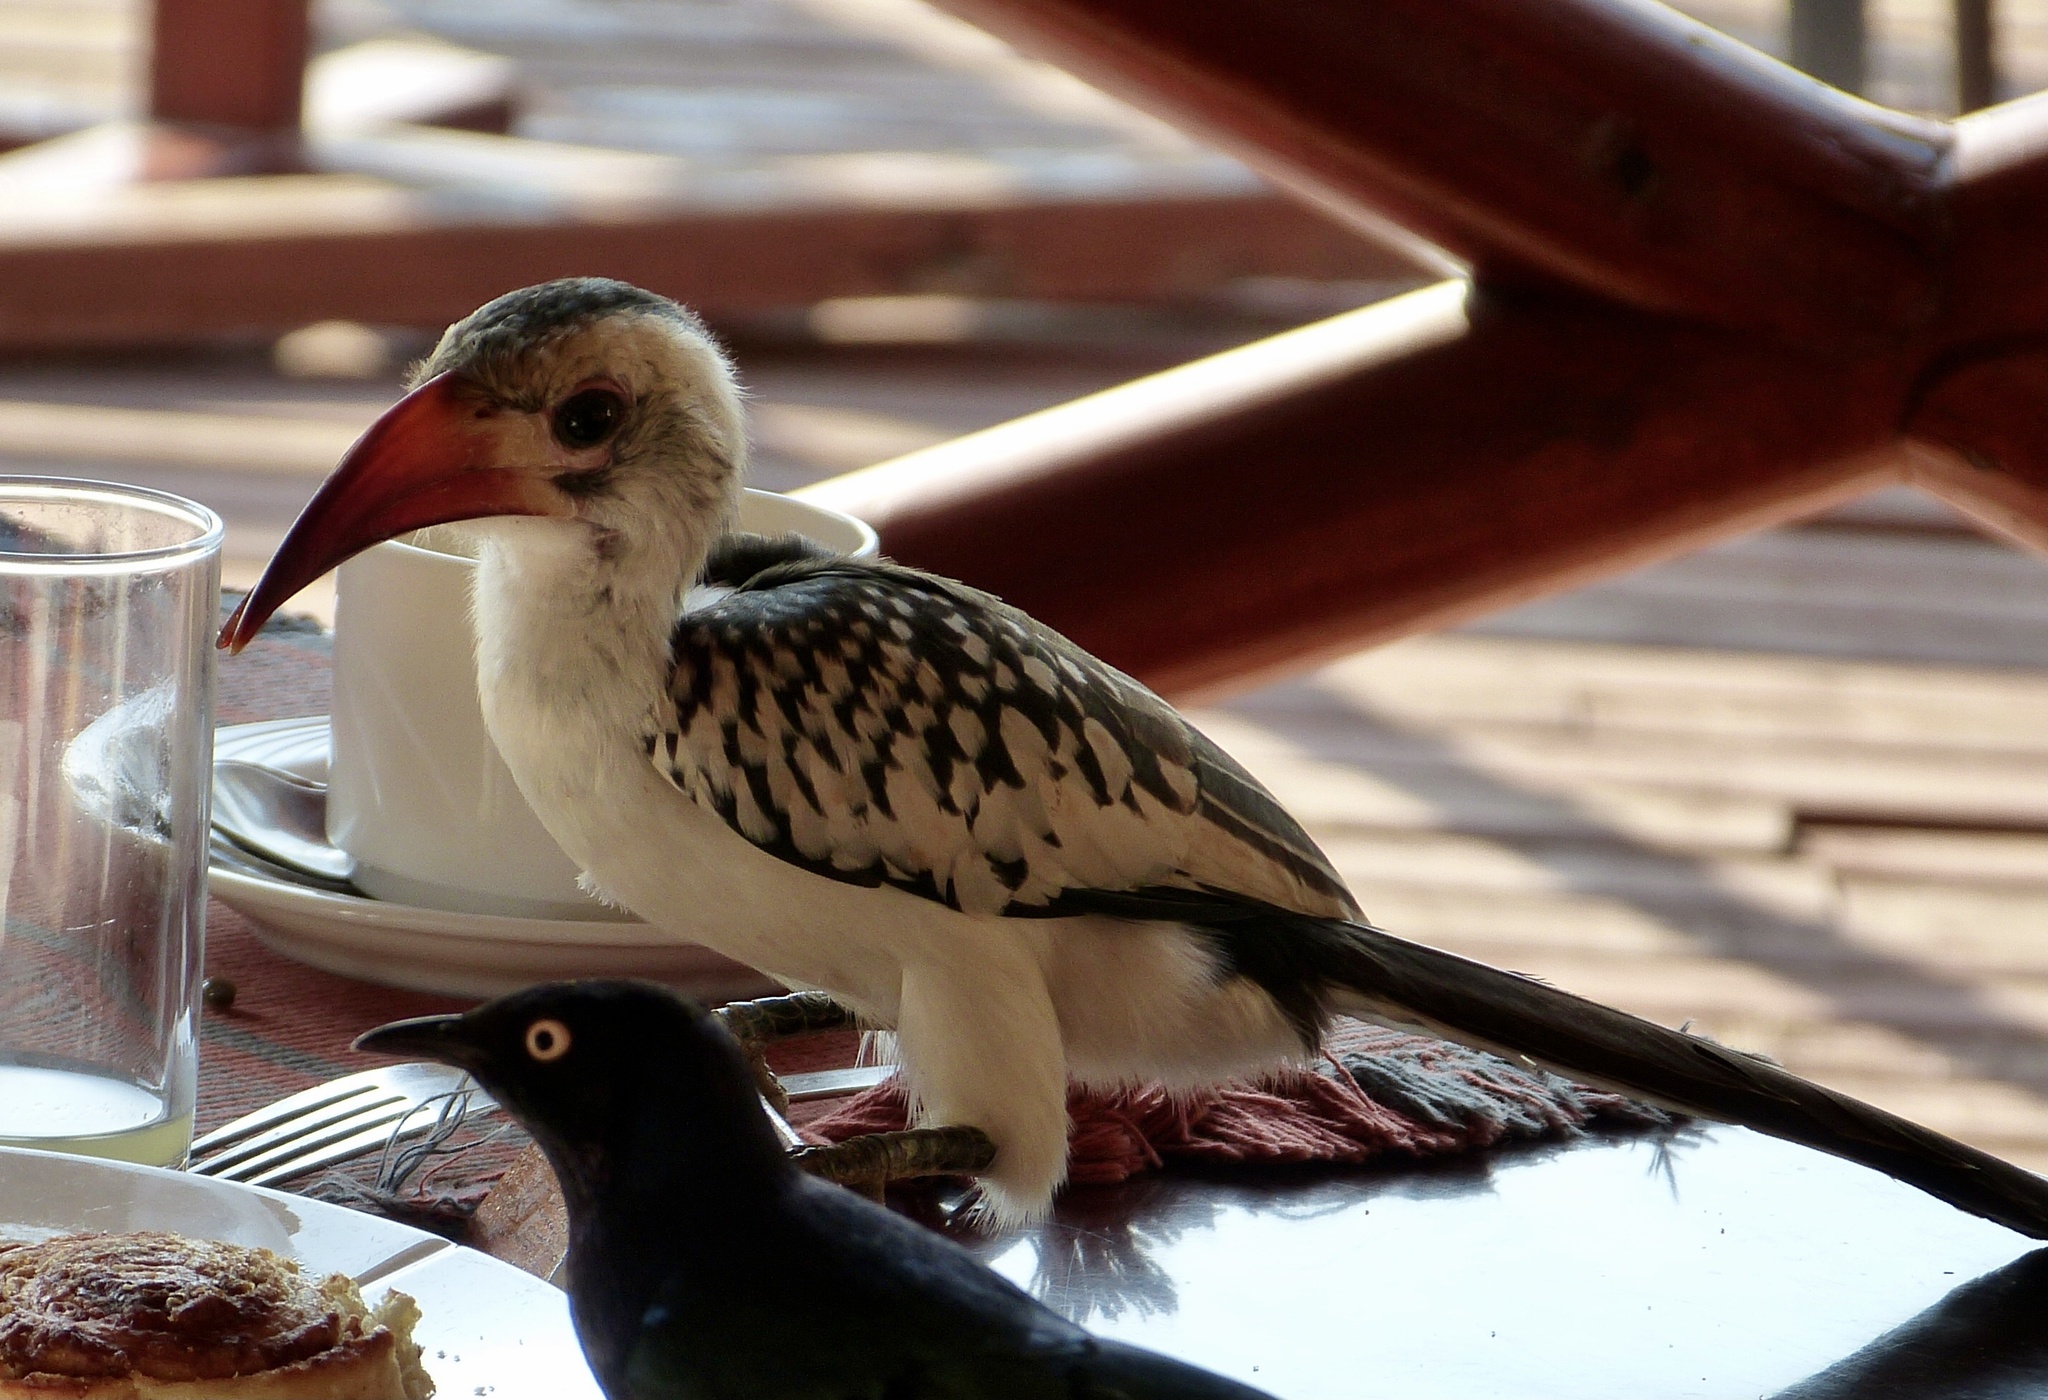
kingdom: Animalia
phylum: Chordata
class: Aves
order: Bucerotiformes
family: Bucerotidae
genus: Tockus
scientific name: Tockus erythrorhynchus
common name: Northern red-billed hornbill
